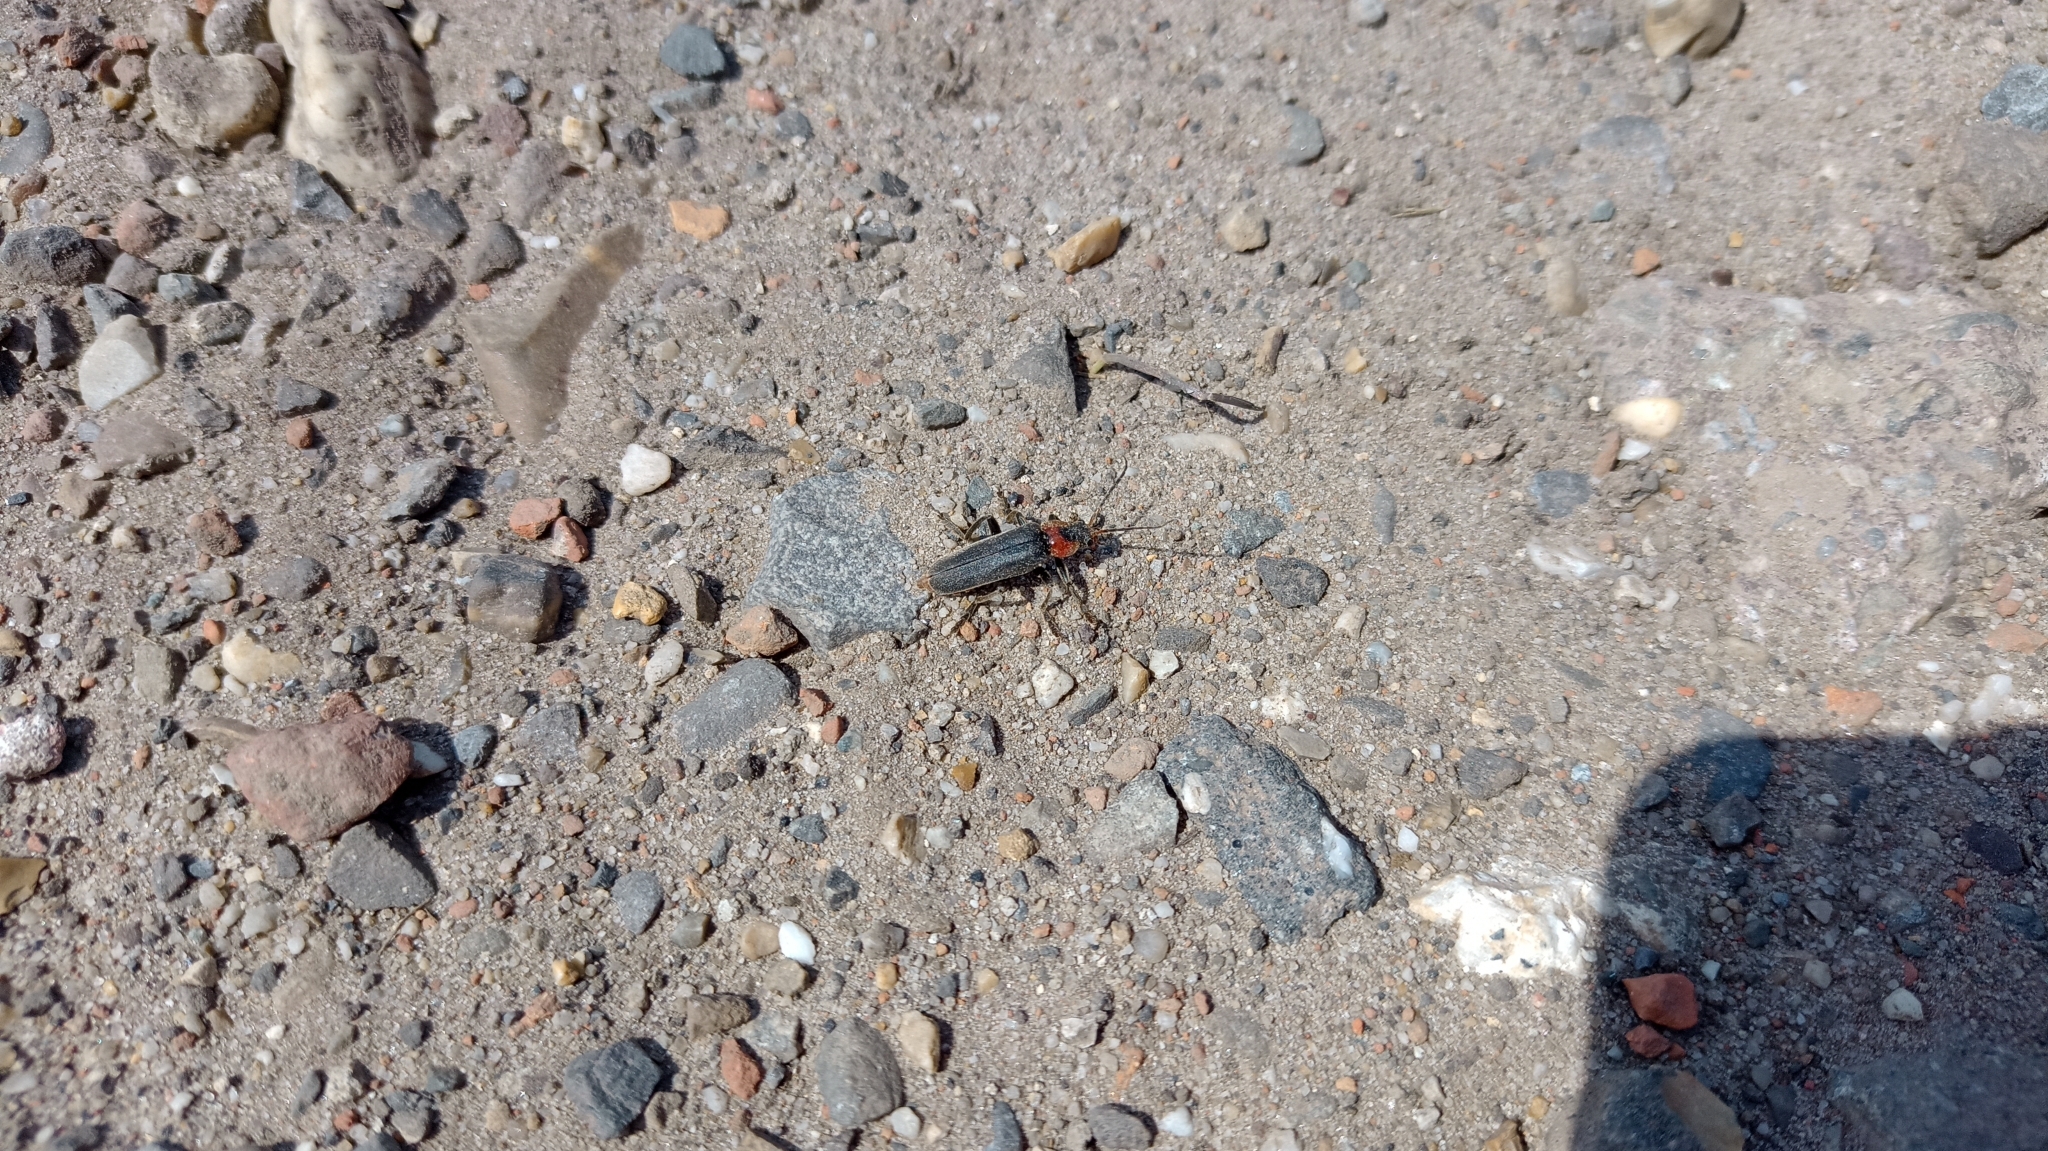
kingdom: Animalia
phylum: Arthropoda
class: Insecta
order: Coleoptera
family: Cantharidae
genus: Cantharis
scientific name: Cantharis fusca
